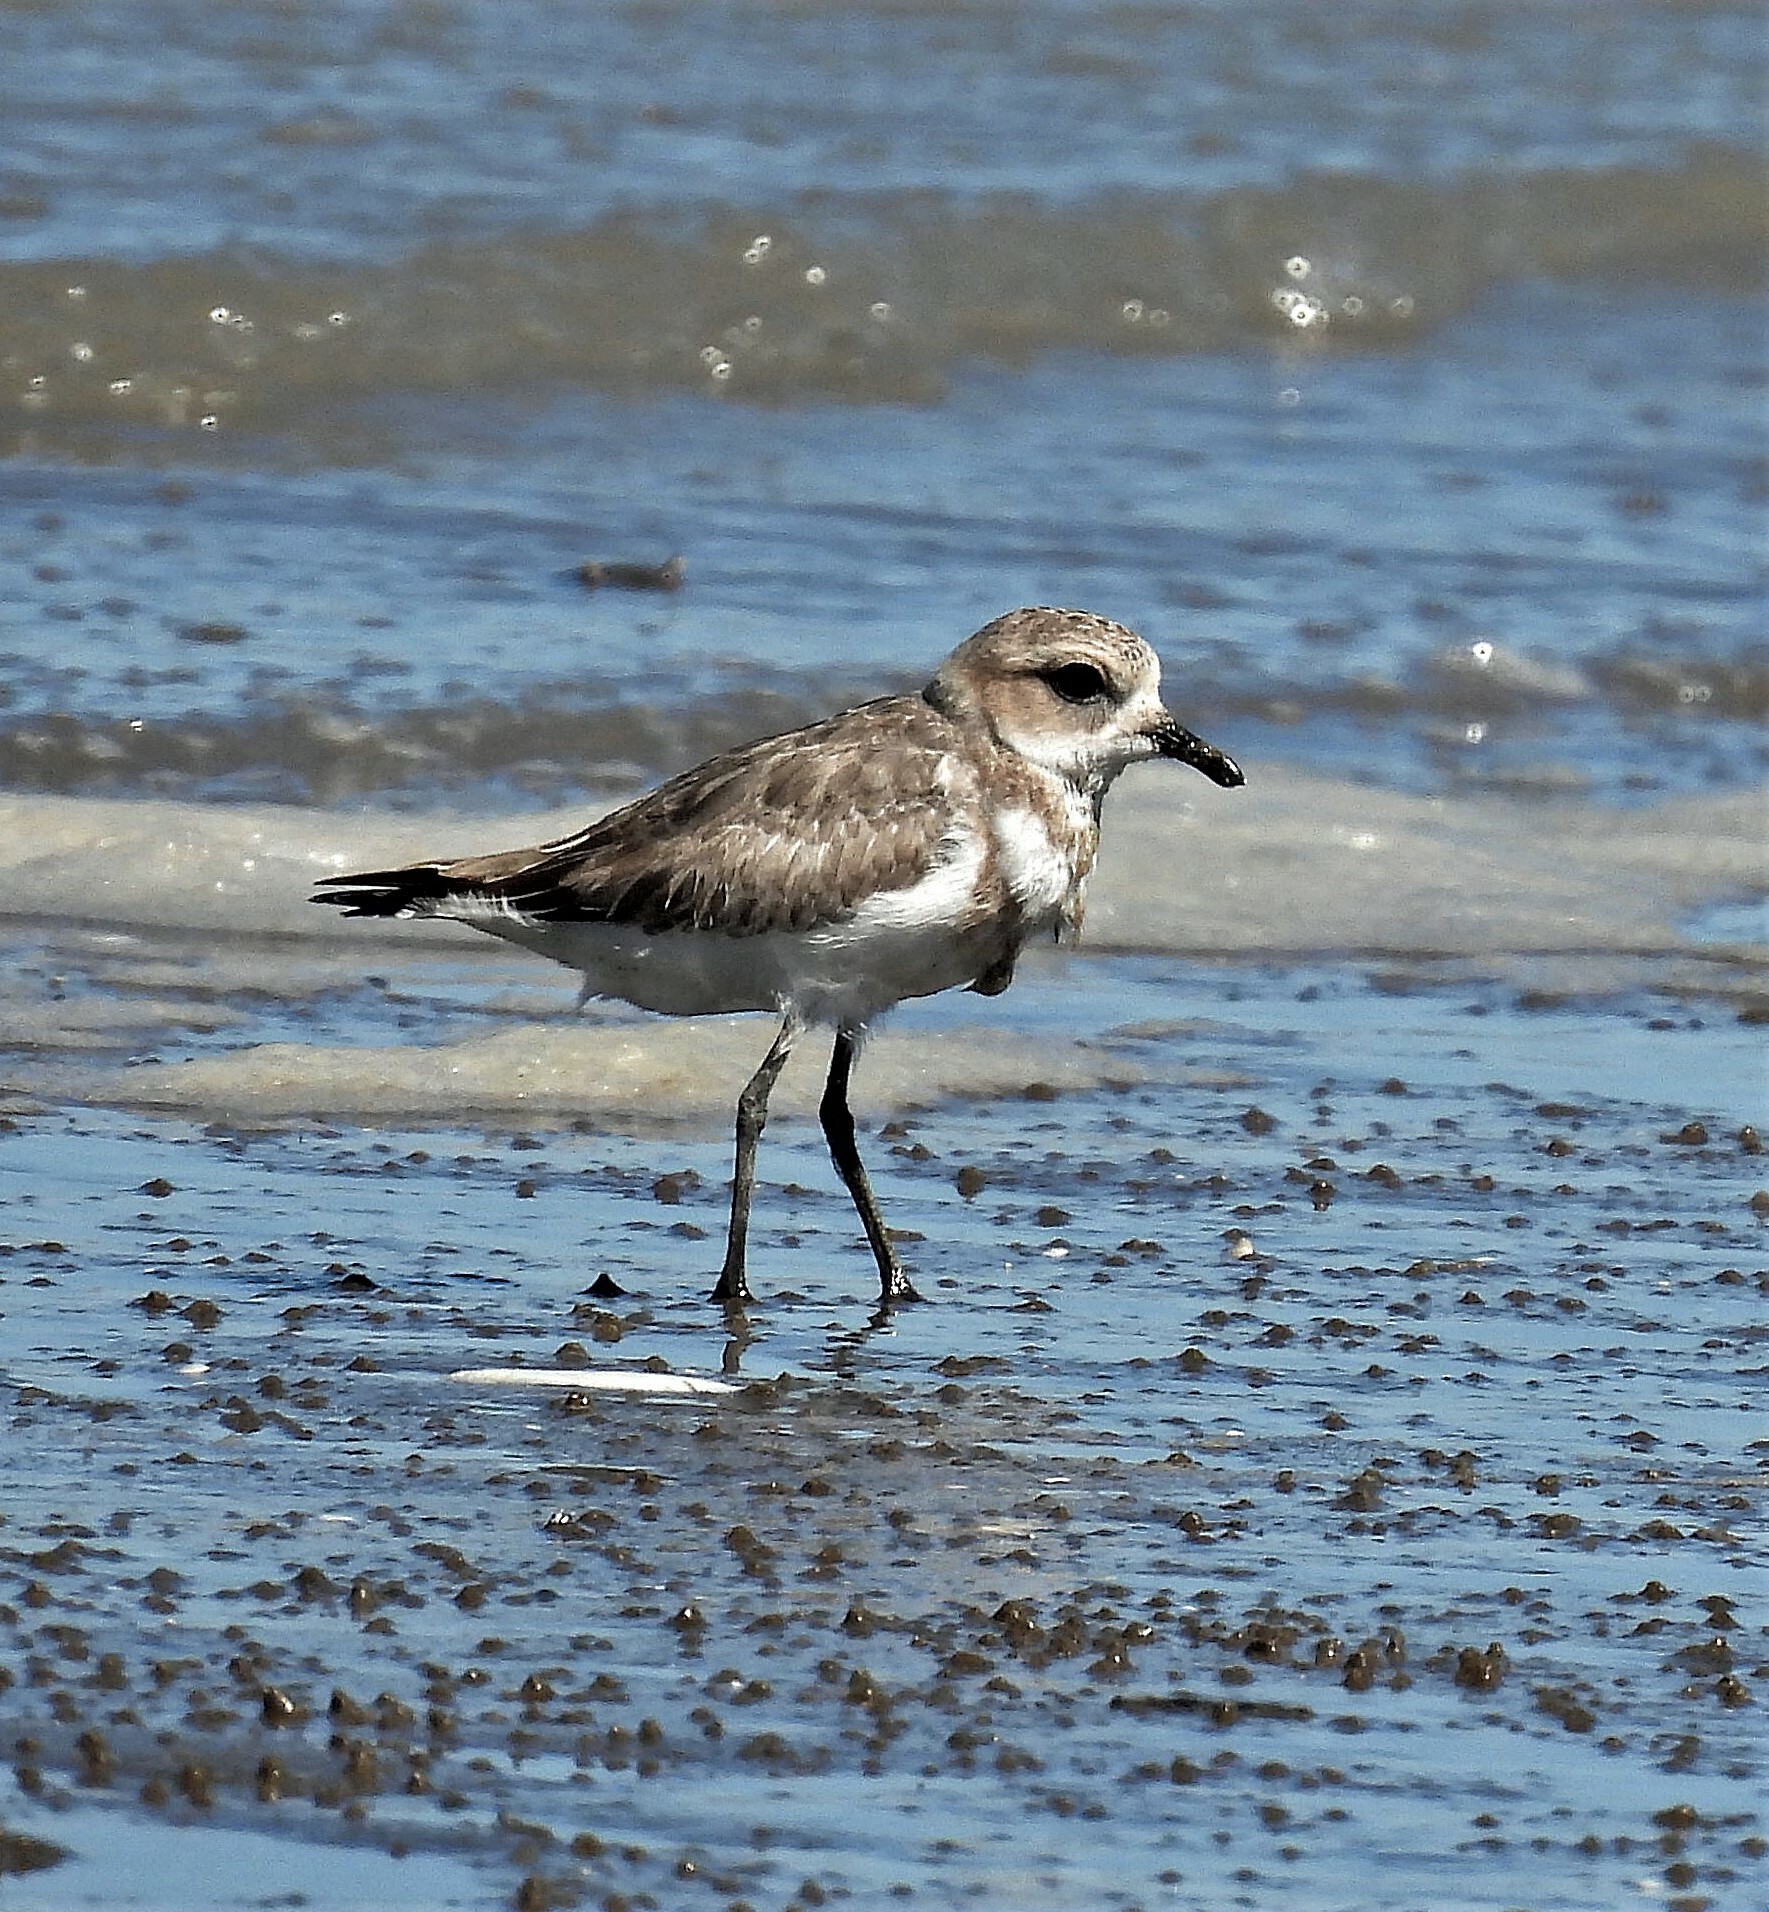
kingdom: Animalia
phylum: Chordata
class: Aves
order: Charadriiformes
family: Charadriidae
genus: Anarhynchus
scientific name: Anarhynchus
